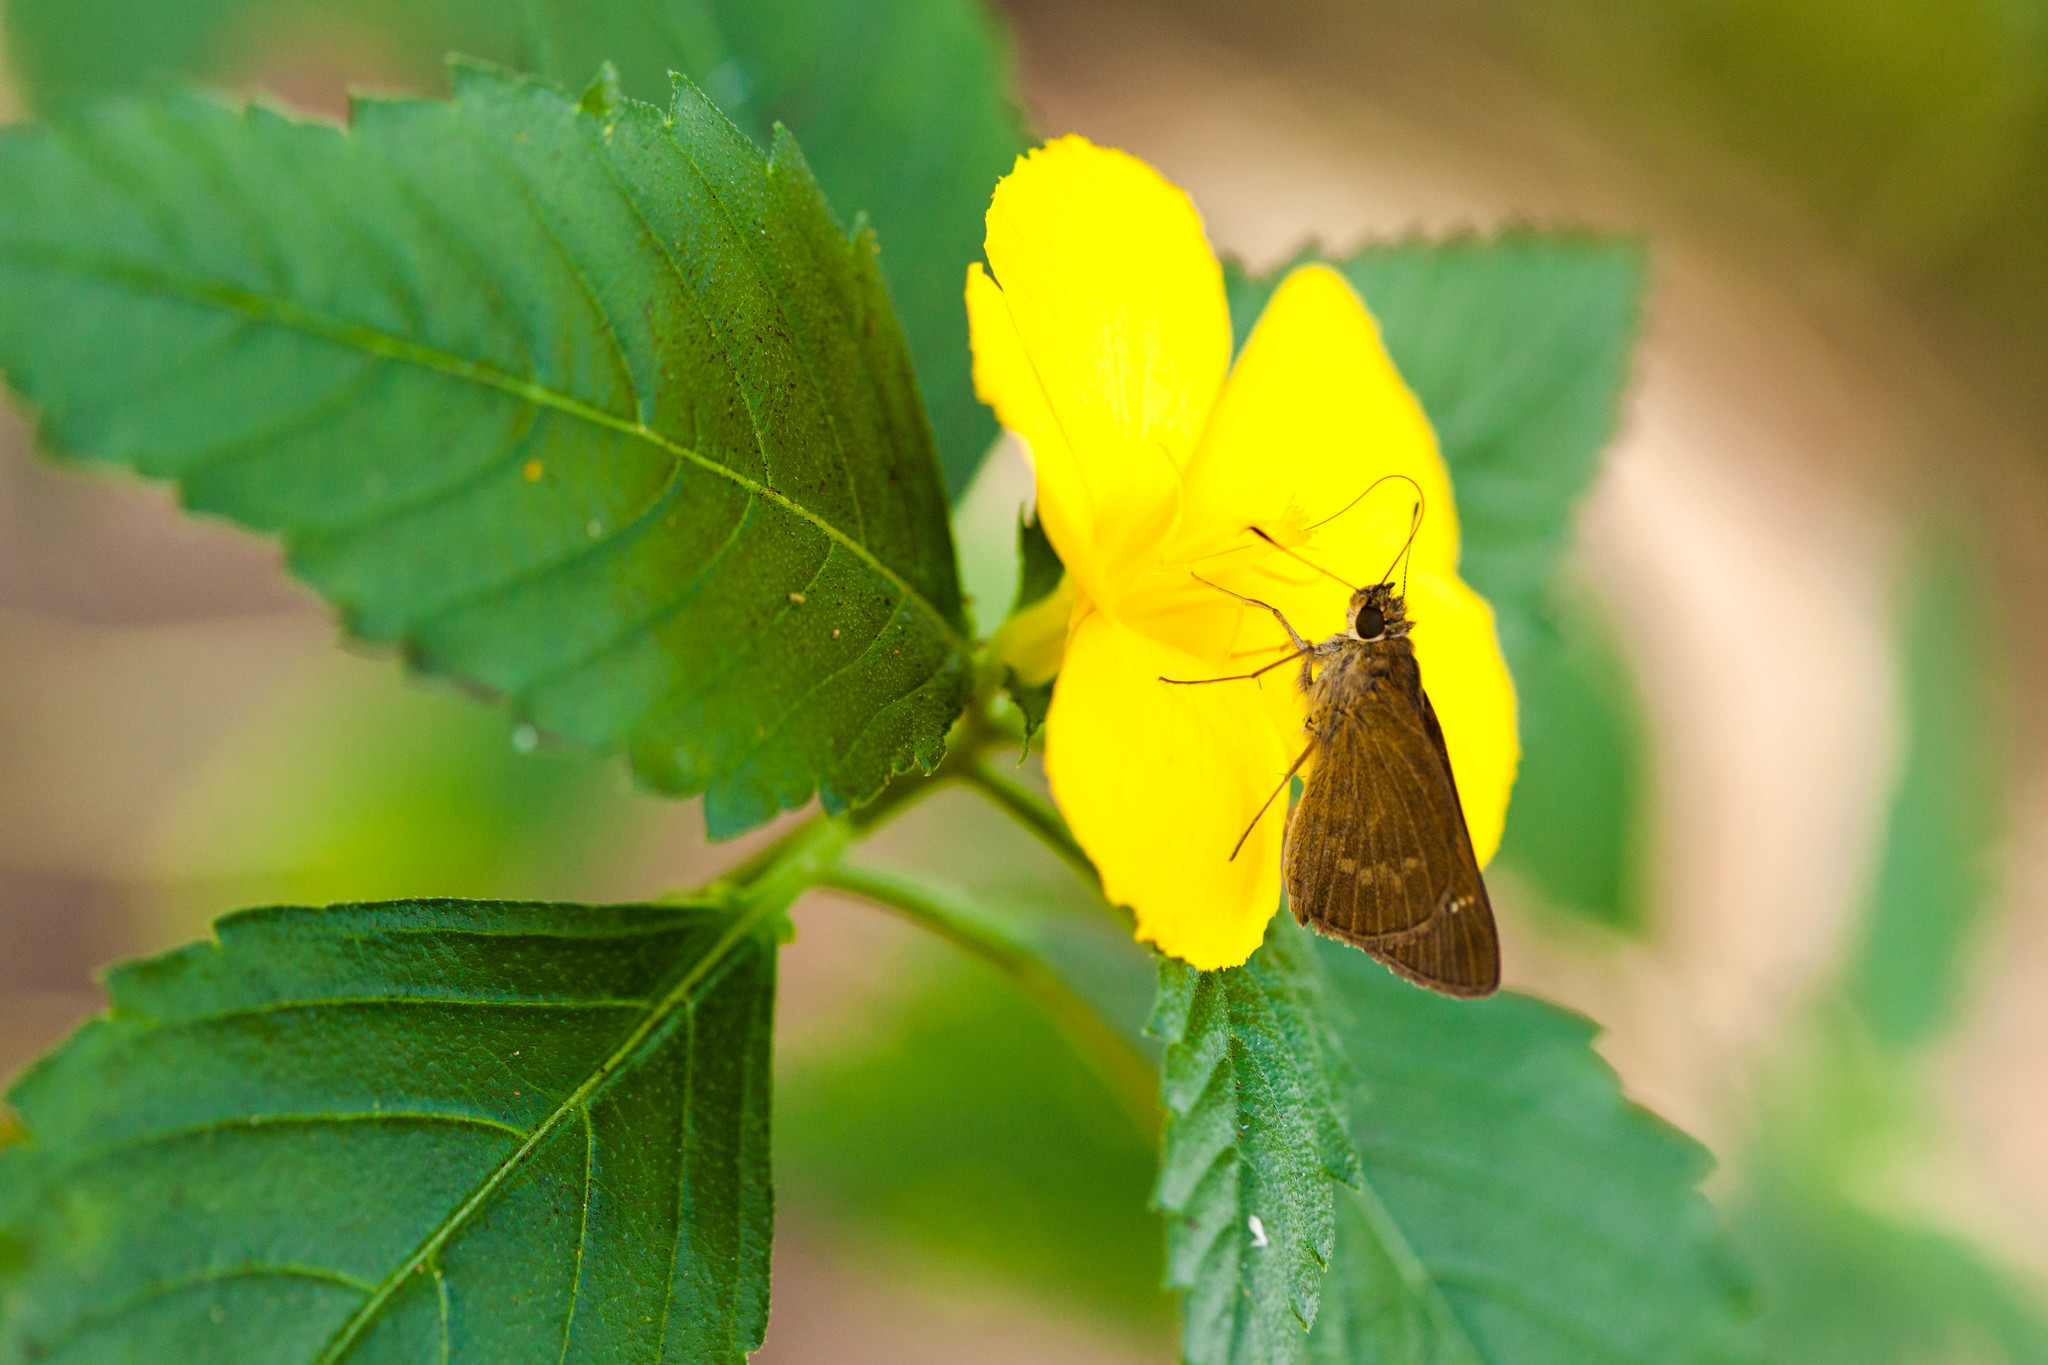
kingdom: Animalia
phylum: Arthropoda
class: Insecta
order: Lepidoptera
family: Hesperiidae
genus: Cymaenes
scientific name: Cymaenes tripunctus
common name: Dingy dotted skipper
